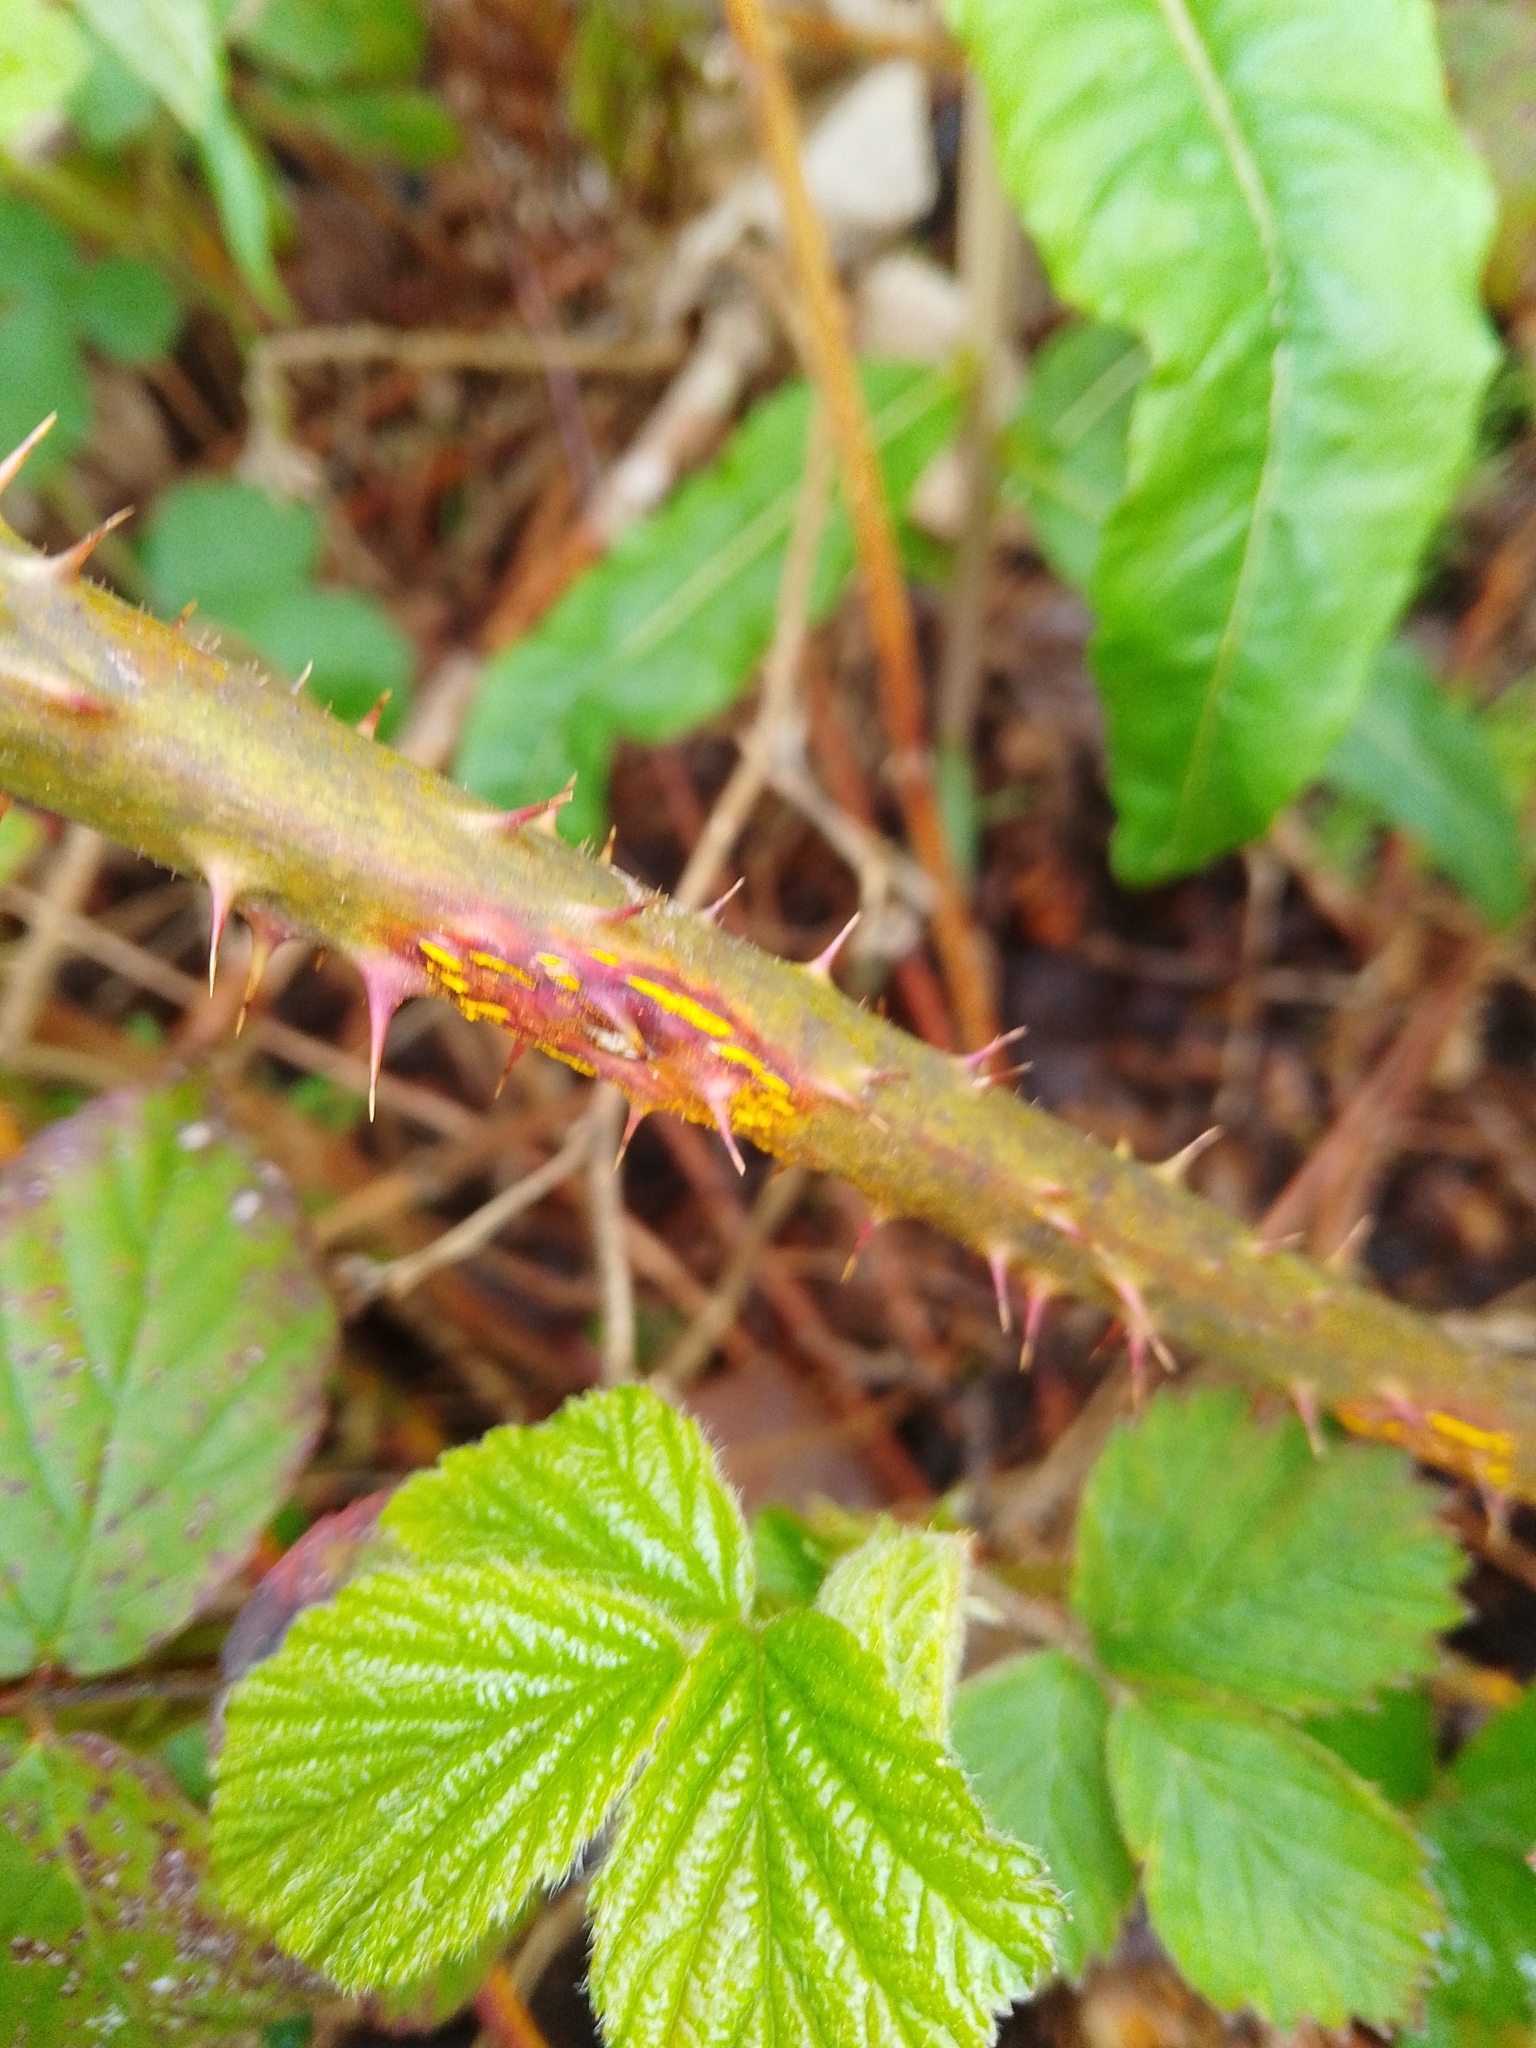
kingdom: Fungi
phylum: Basidiomycota
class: Pucciniomycetes
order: Pucciniales
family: Phragmidiaceae
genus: Kuehneola
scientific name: Kuehneola uredinis
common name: Bramble stem rust
